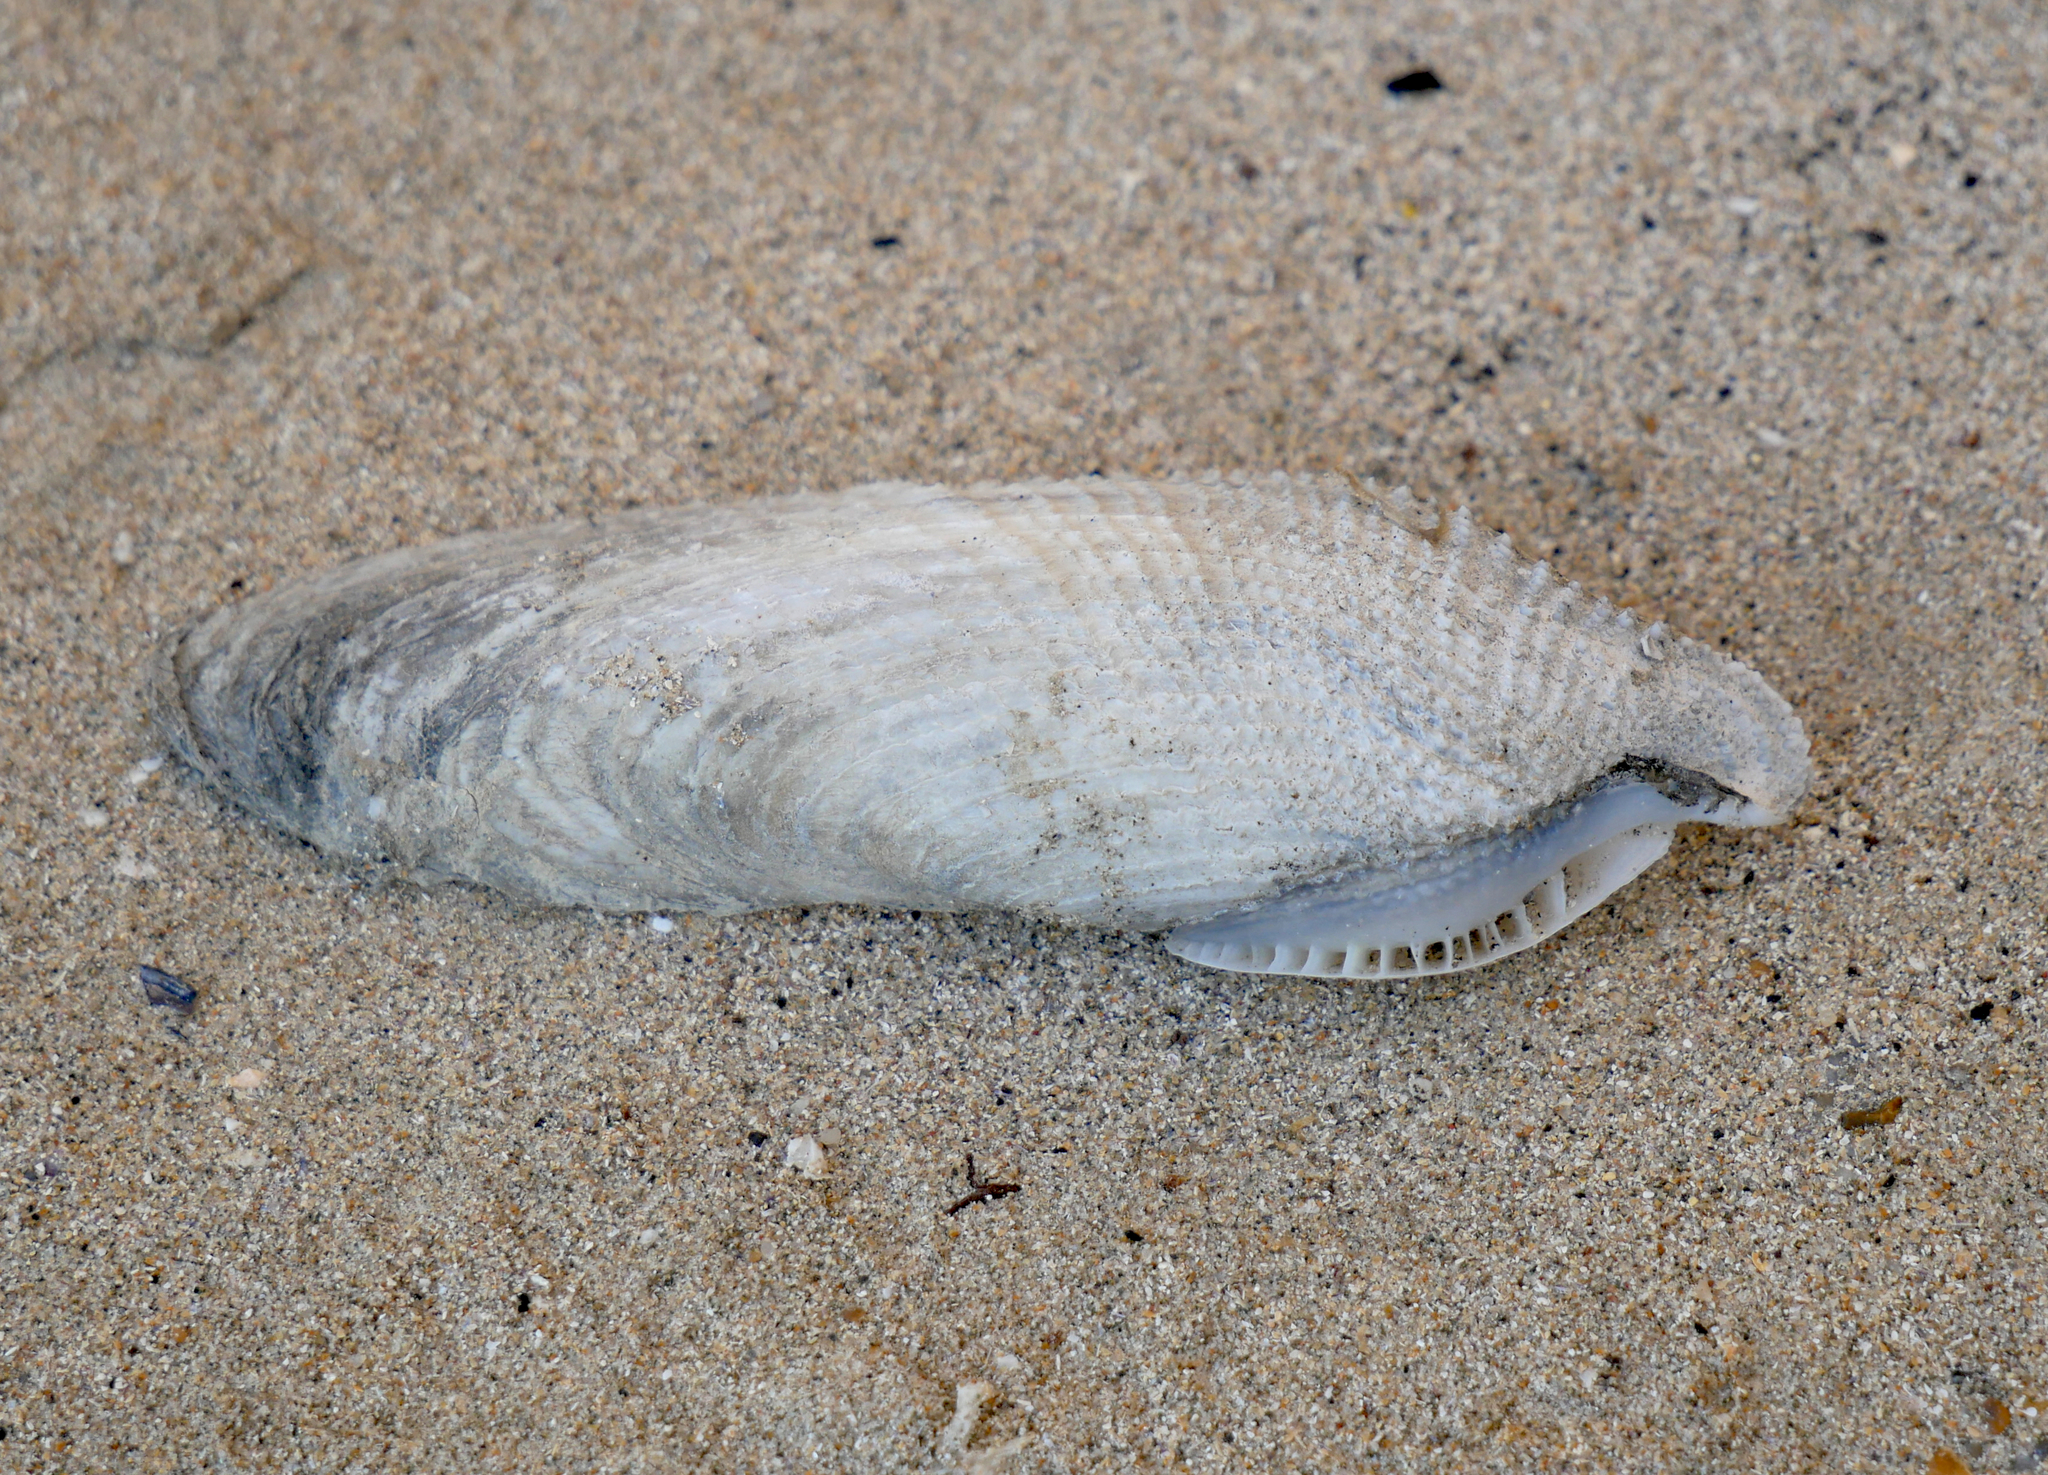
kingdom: Animalia
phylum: Mollusca
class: Bivalvia
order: Myida
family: Pholadidae
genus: Pholas
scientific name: Pholas dactylus
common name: Common piddock
